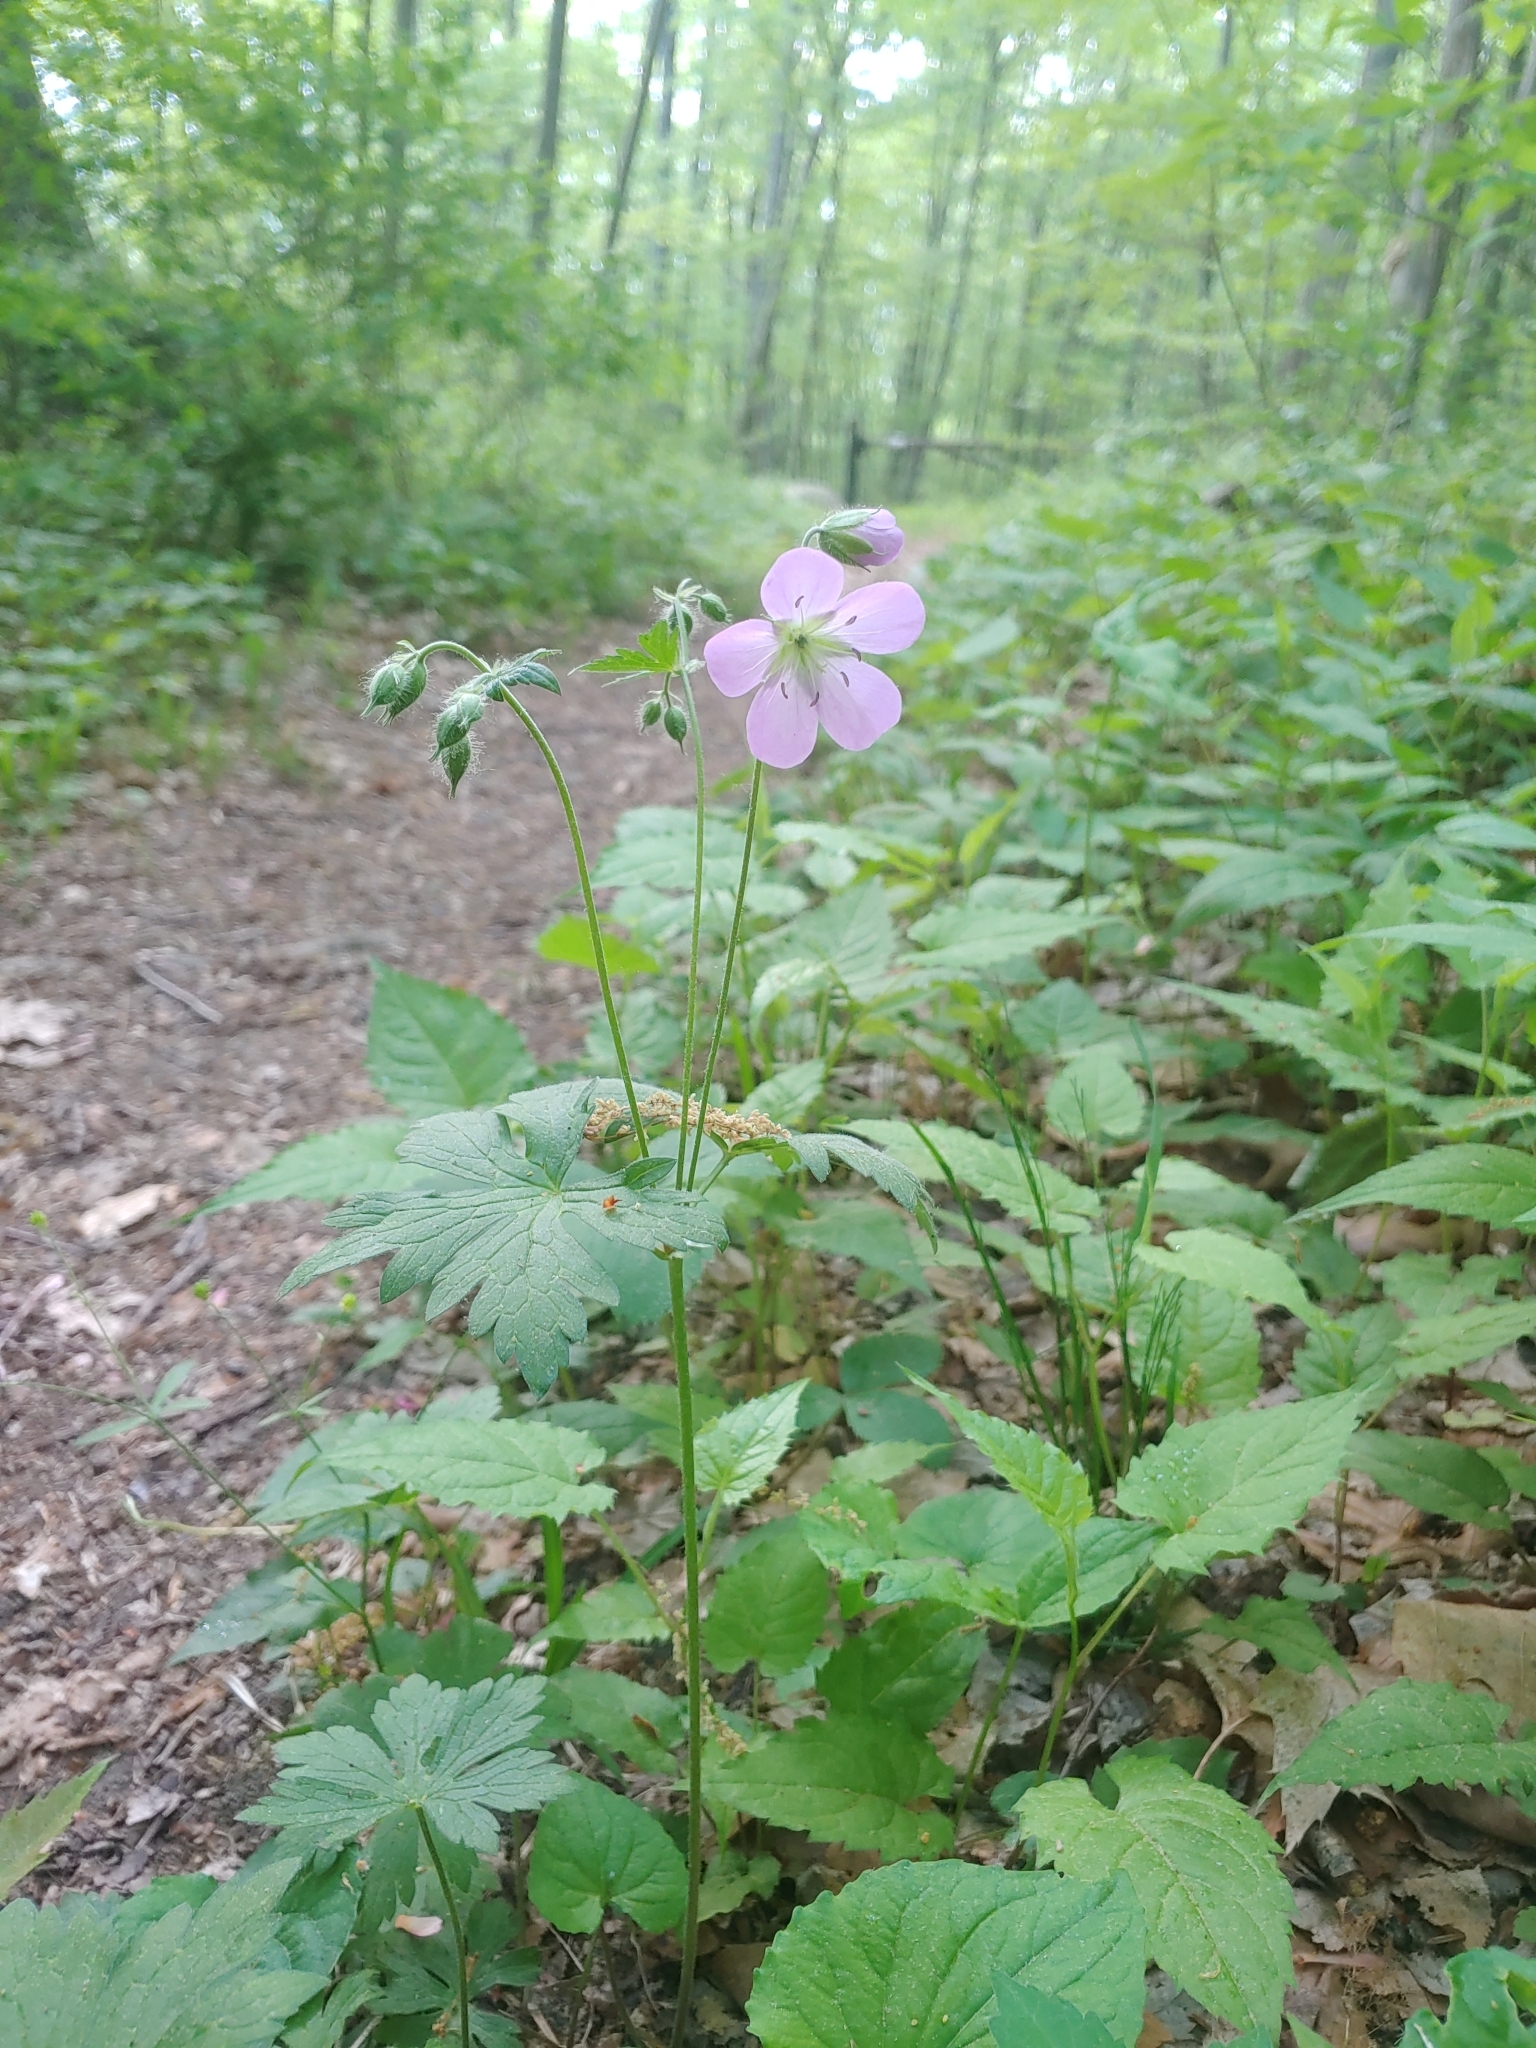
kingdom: Plantae
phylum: Tracheophyta
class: Magnoliopsida
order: Geraniales
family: Geraniaceae
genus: Geranium
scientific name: Geranium maculatum
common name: Spotted geranium
